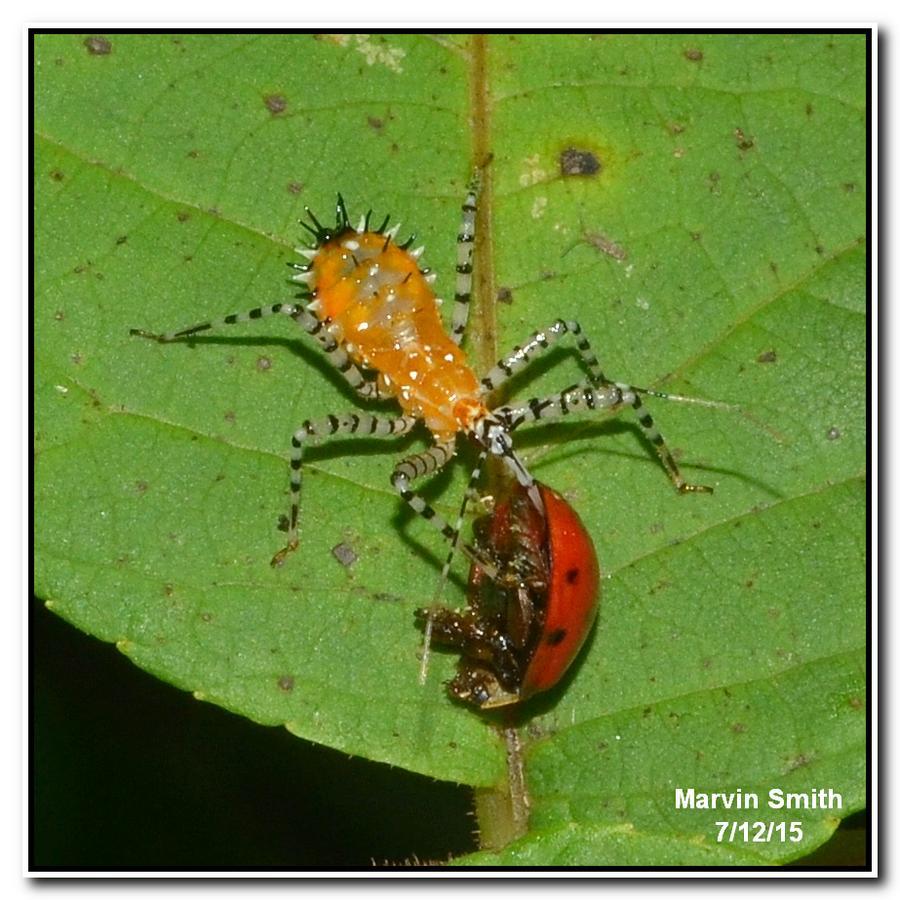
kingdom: Animalia
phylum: Arthropoda
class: Insecta
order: Hemiptera
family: Reduviidae
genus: Pselliopus
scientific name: Pselliopus cinctus
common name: Ringed assassin bug
